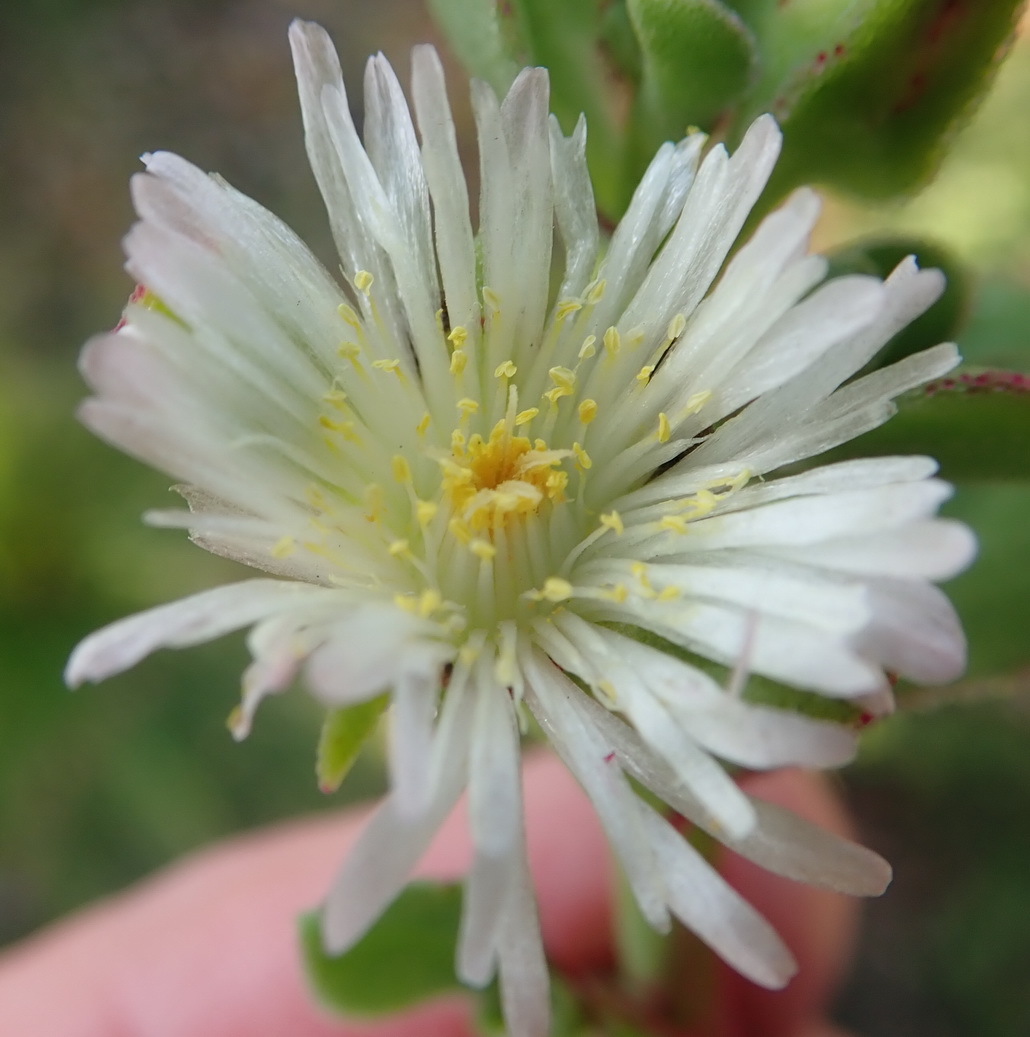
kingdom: Plantae
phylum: Tracheophyta
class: Magnoliopsida
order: Caryophyllales
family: Aizoaceae
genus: Mesembryanthemum
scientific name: Mesembryanthemum aitonis
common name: Angled iceplant
